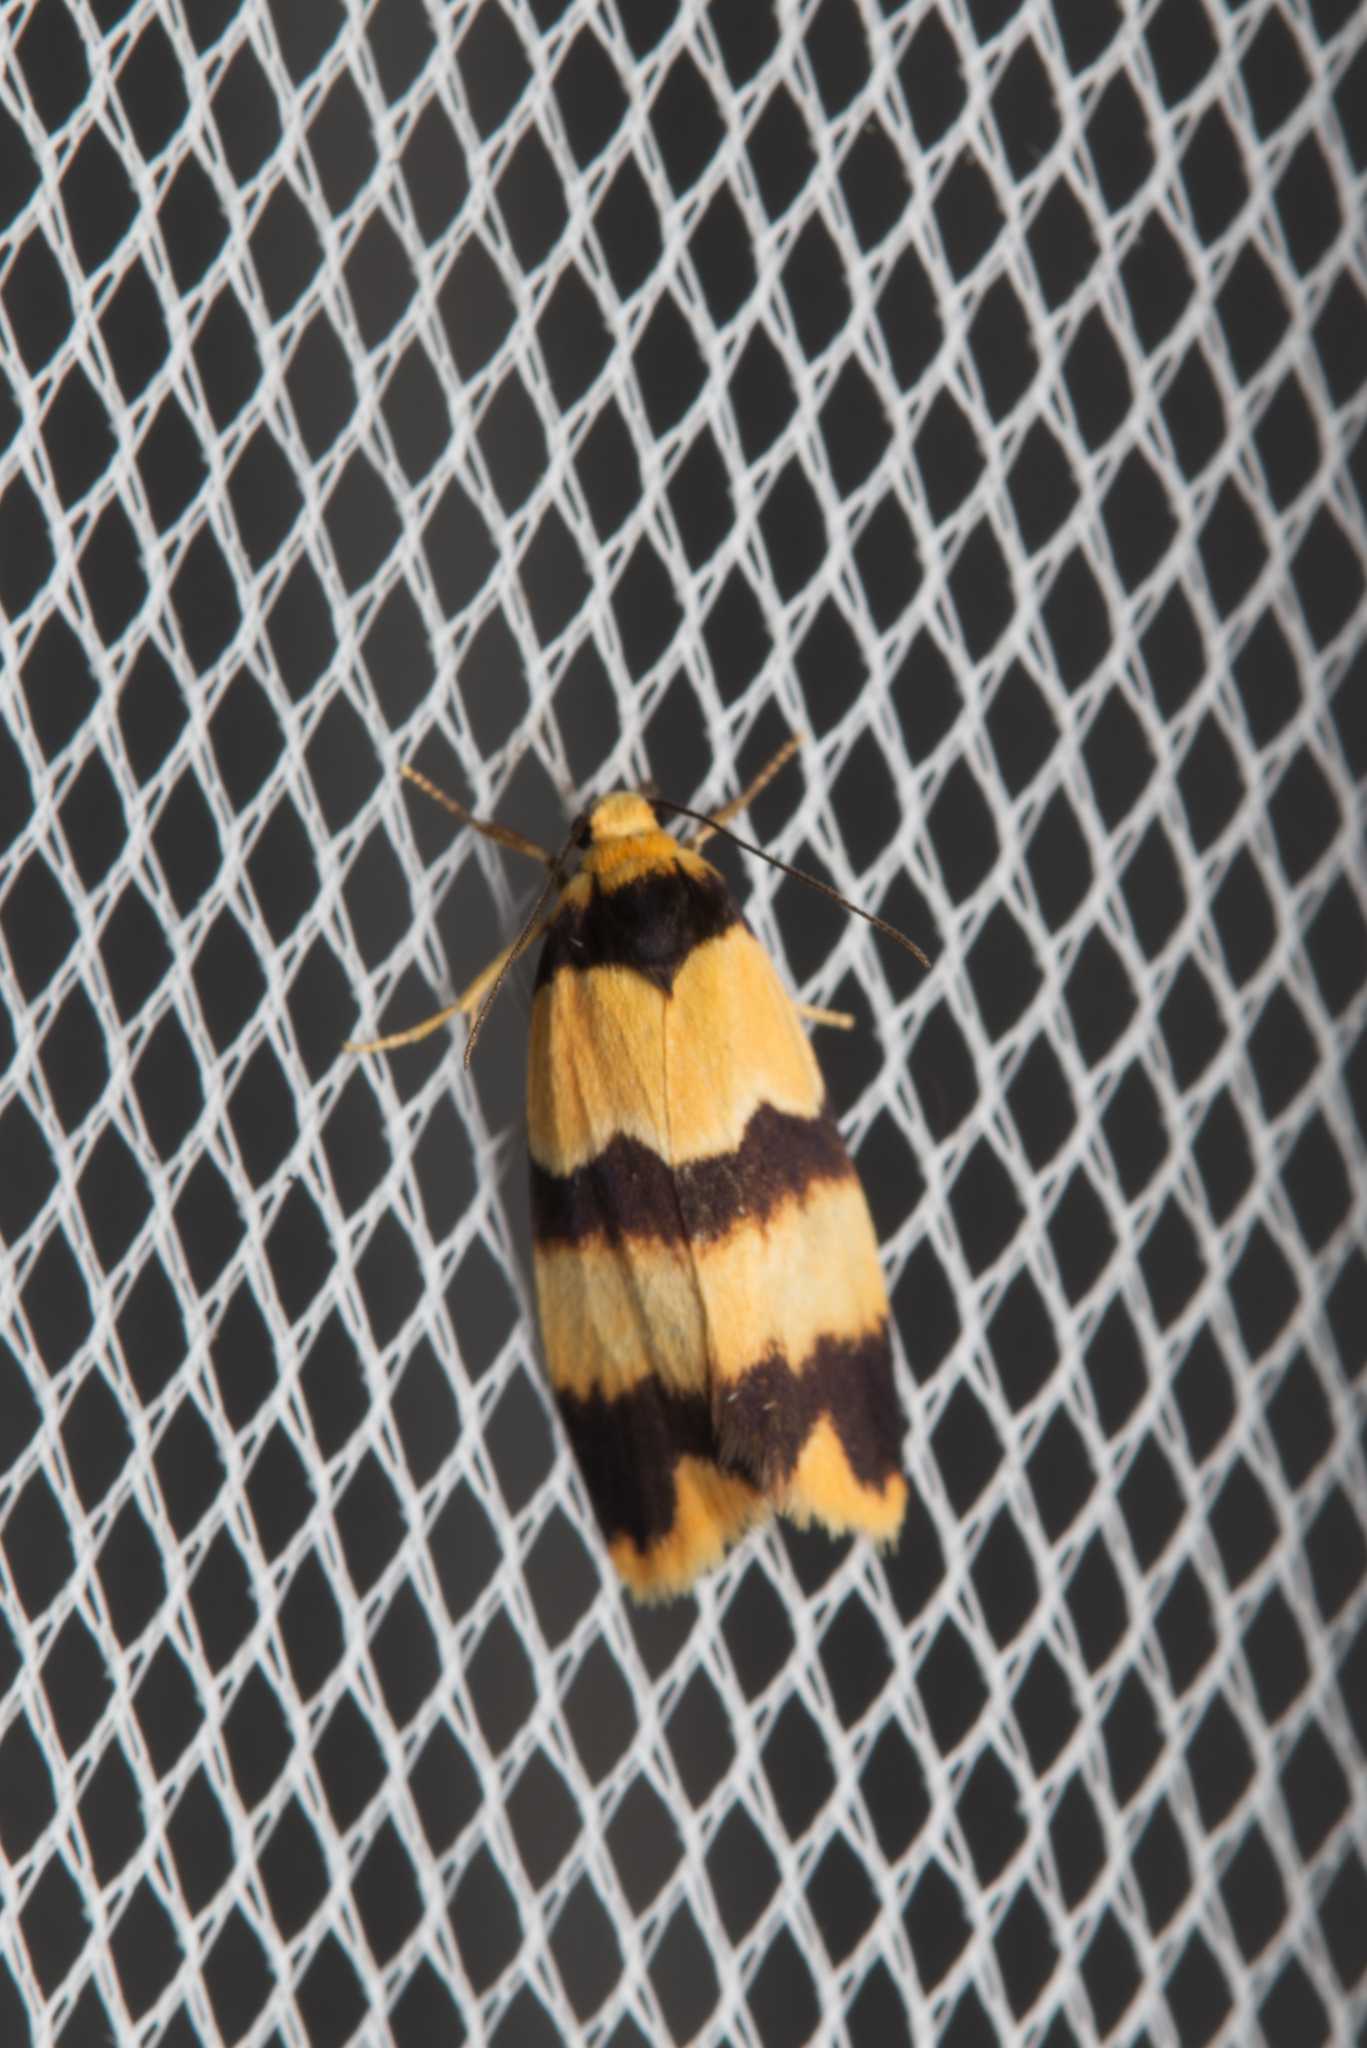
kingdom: Animalia
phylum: Arthropoda
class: Insecta
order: Lepidoptera
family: Erebidae
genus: Stenoscaptia
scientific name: Stenoscaptia venusta
